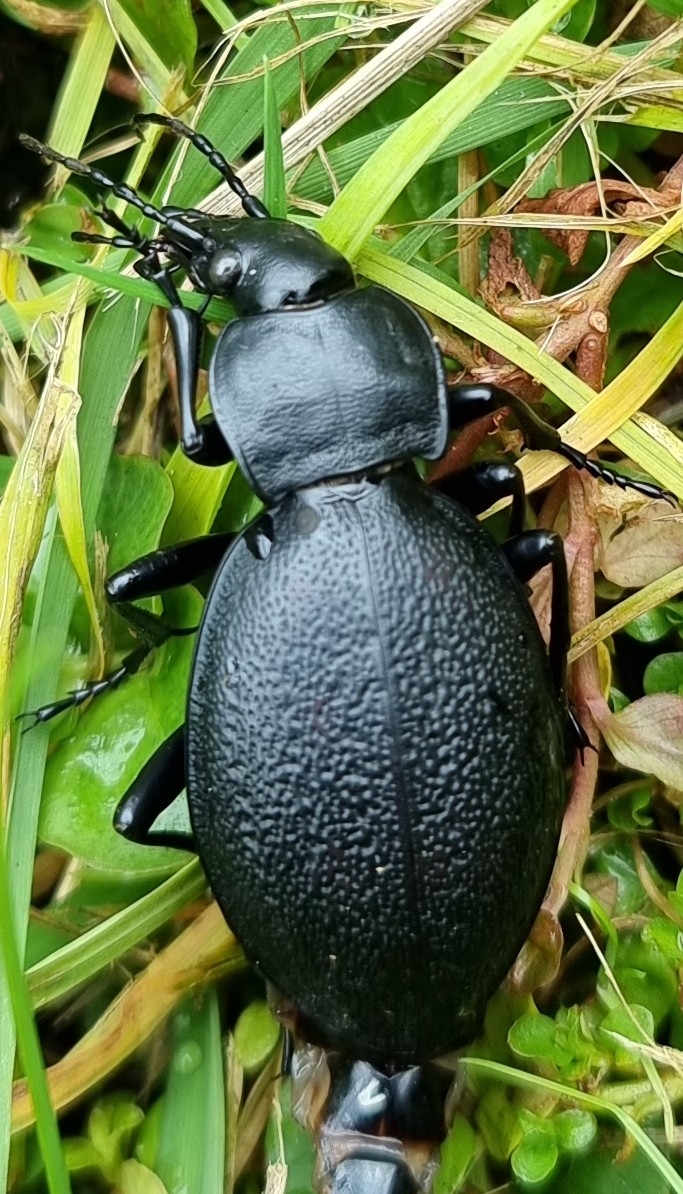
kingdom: Animalia
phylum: Arthropoda
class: Insecta
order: Coleoptera
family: Carabidae
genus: Carabus
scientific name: Carabus coriaceus
